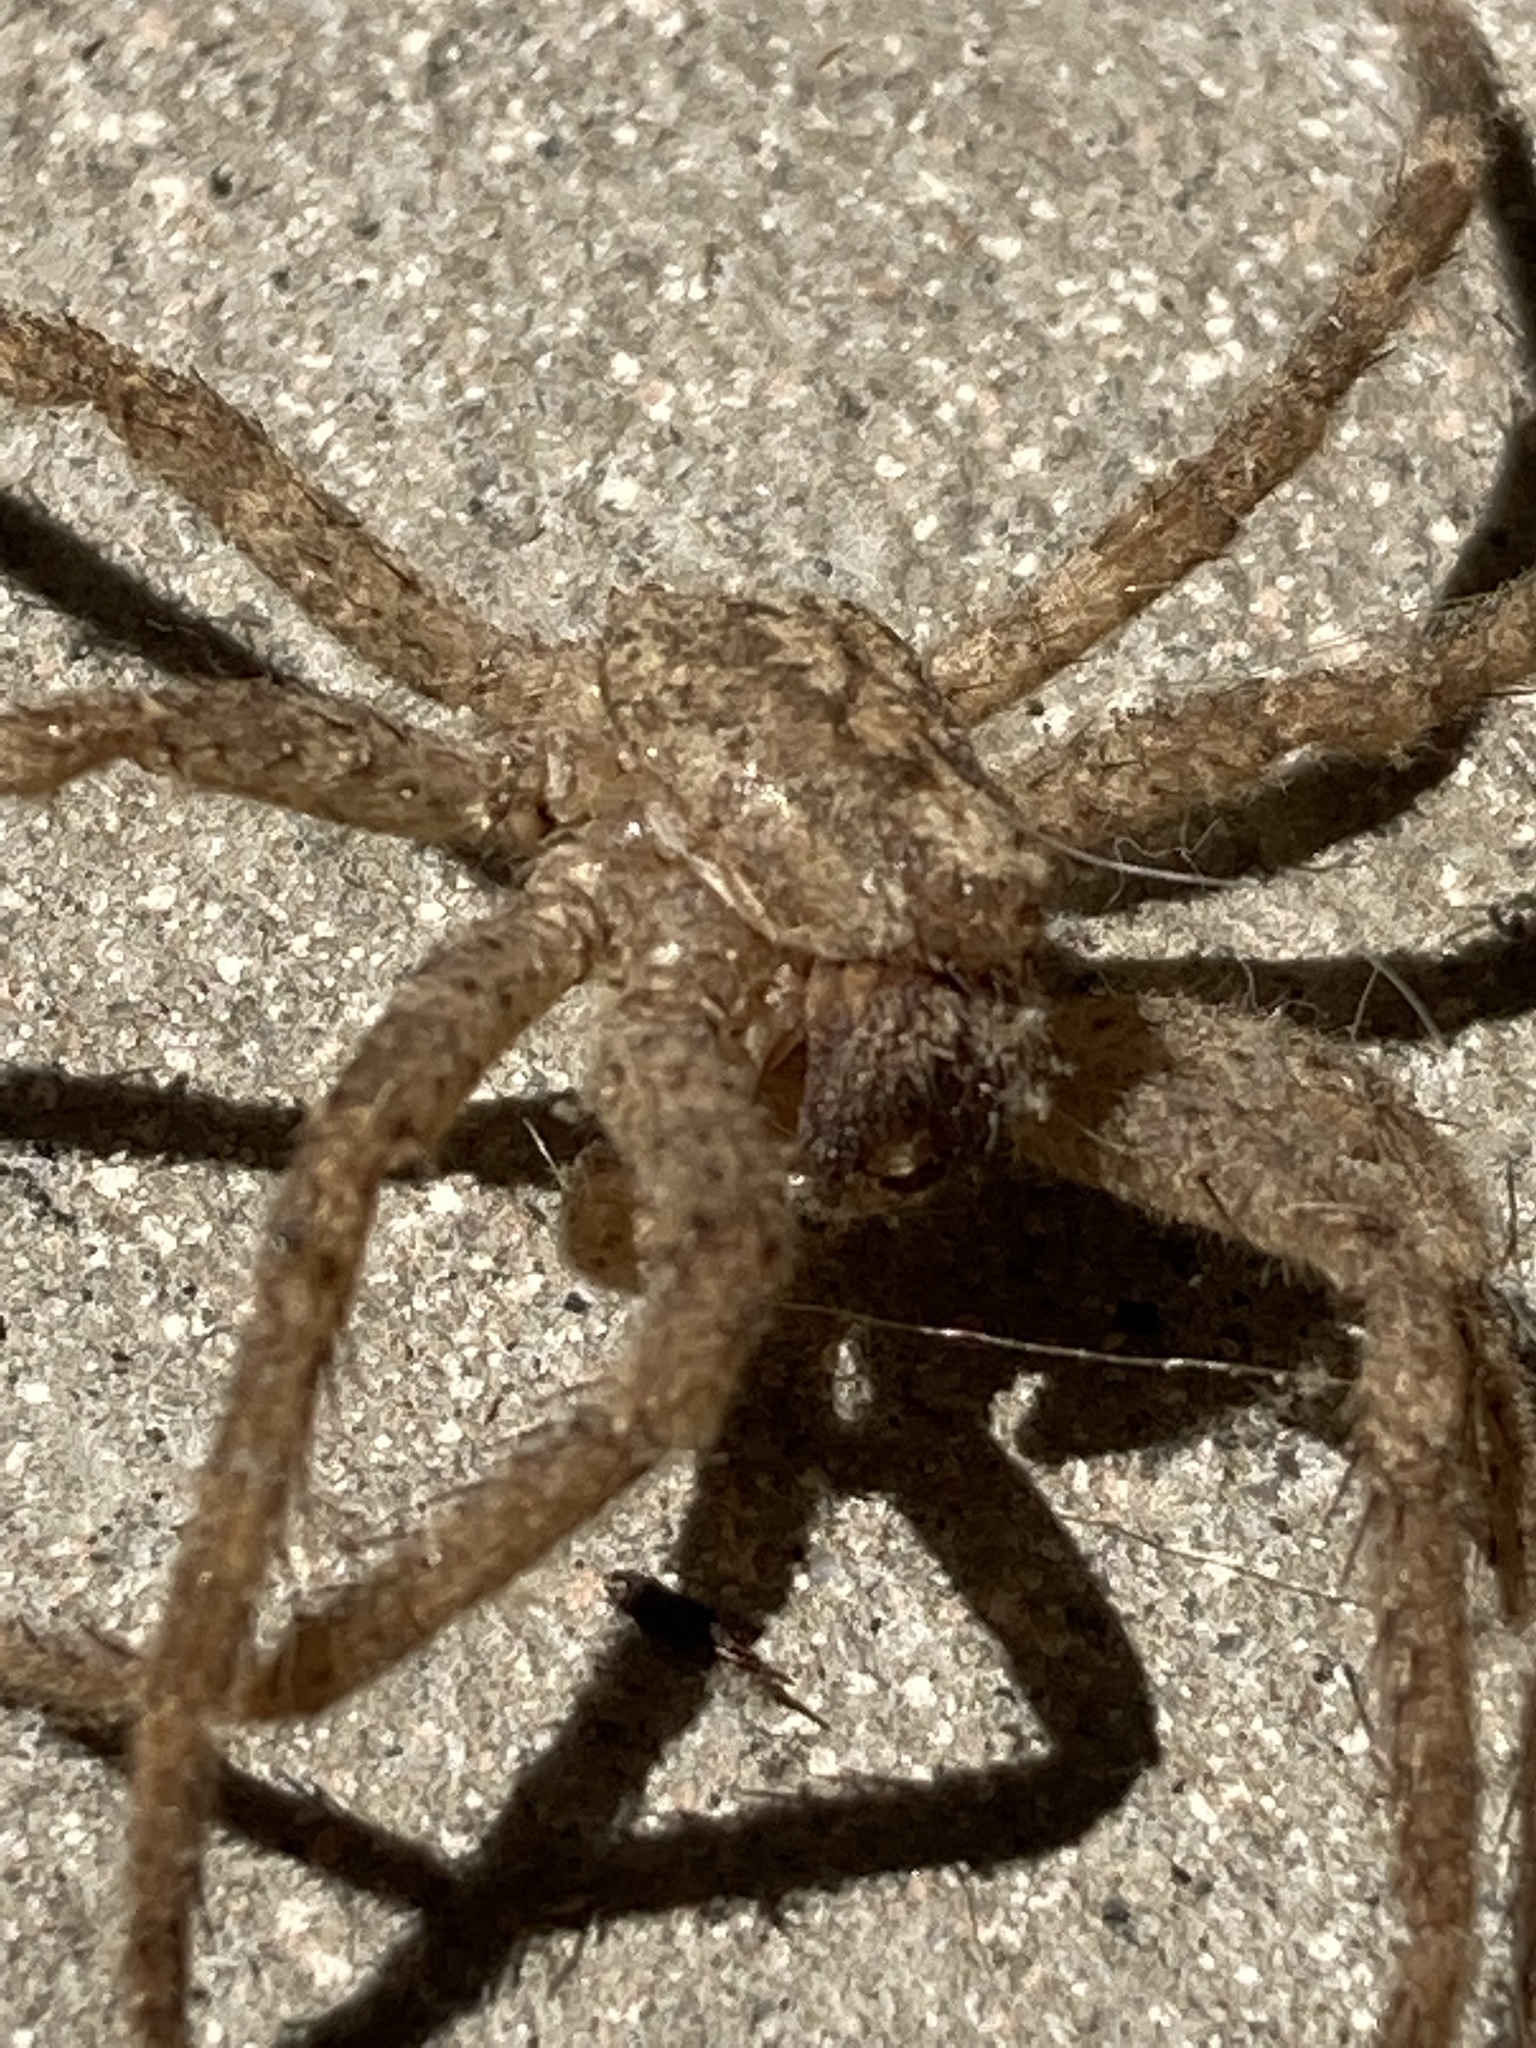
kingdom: Animalia
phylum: Arthropoda
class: Arachnida
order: Araneae
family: Zoropsidae
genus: Zoropsis
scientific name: Zoropsis spinimana
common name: Zoropsid spider
